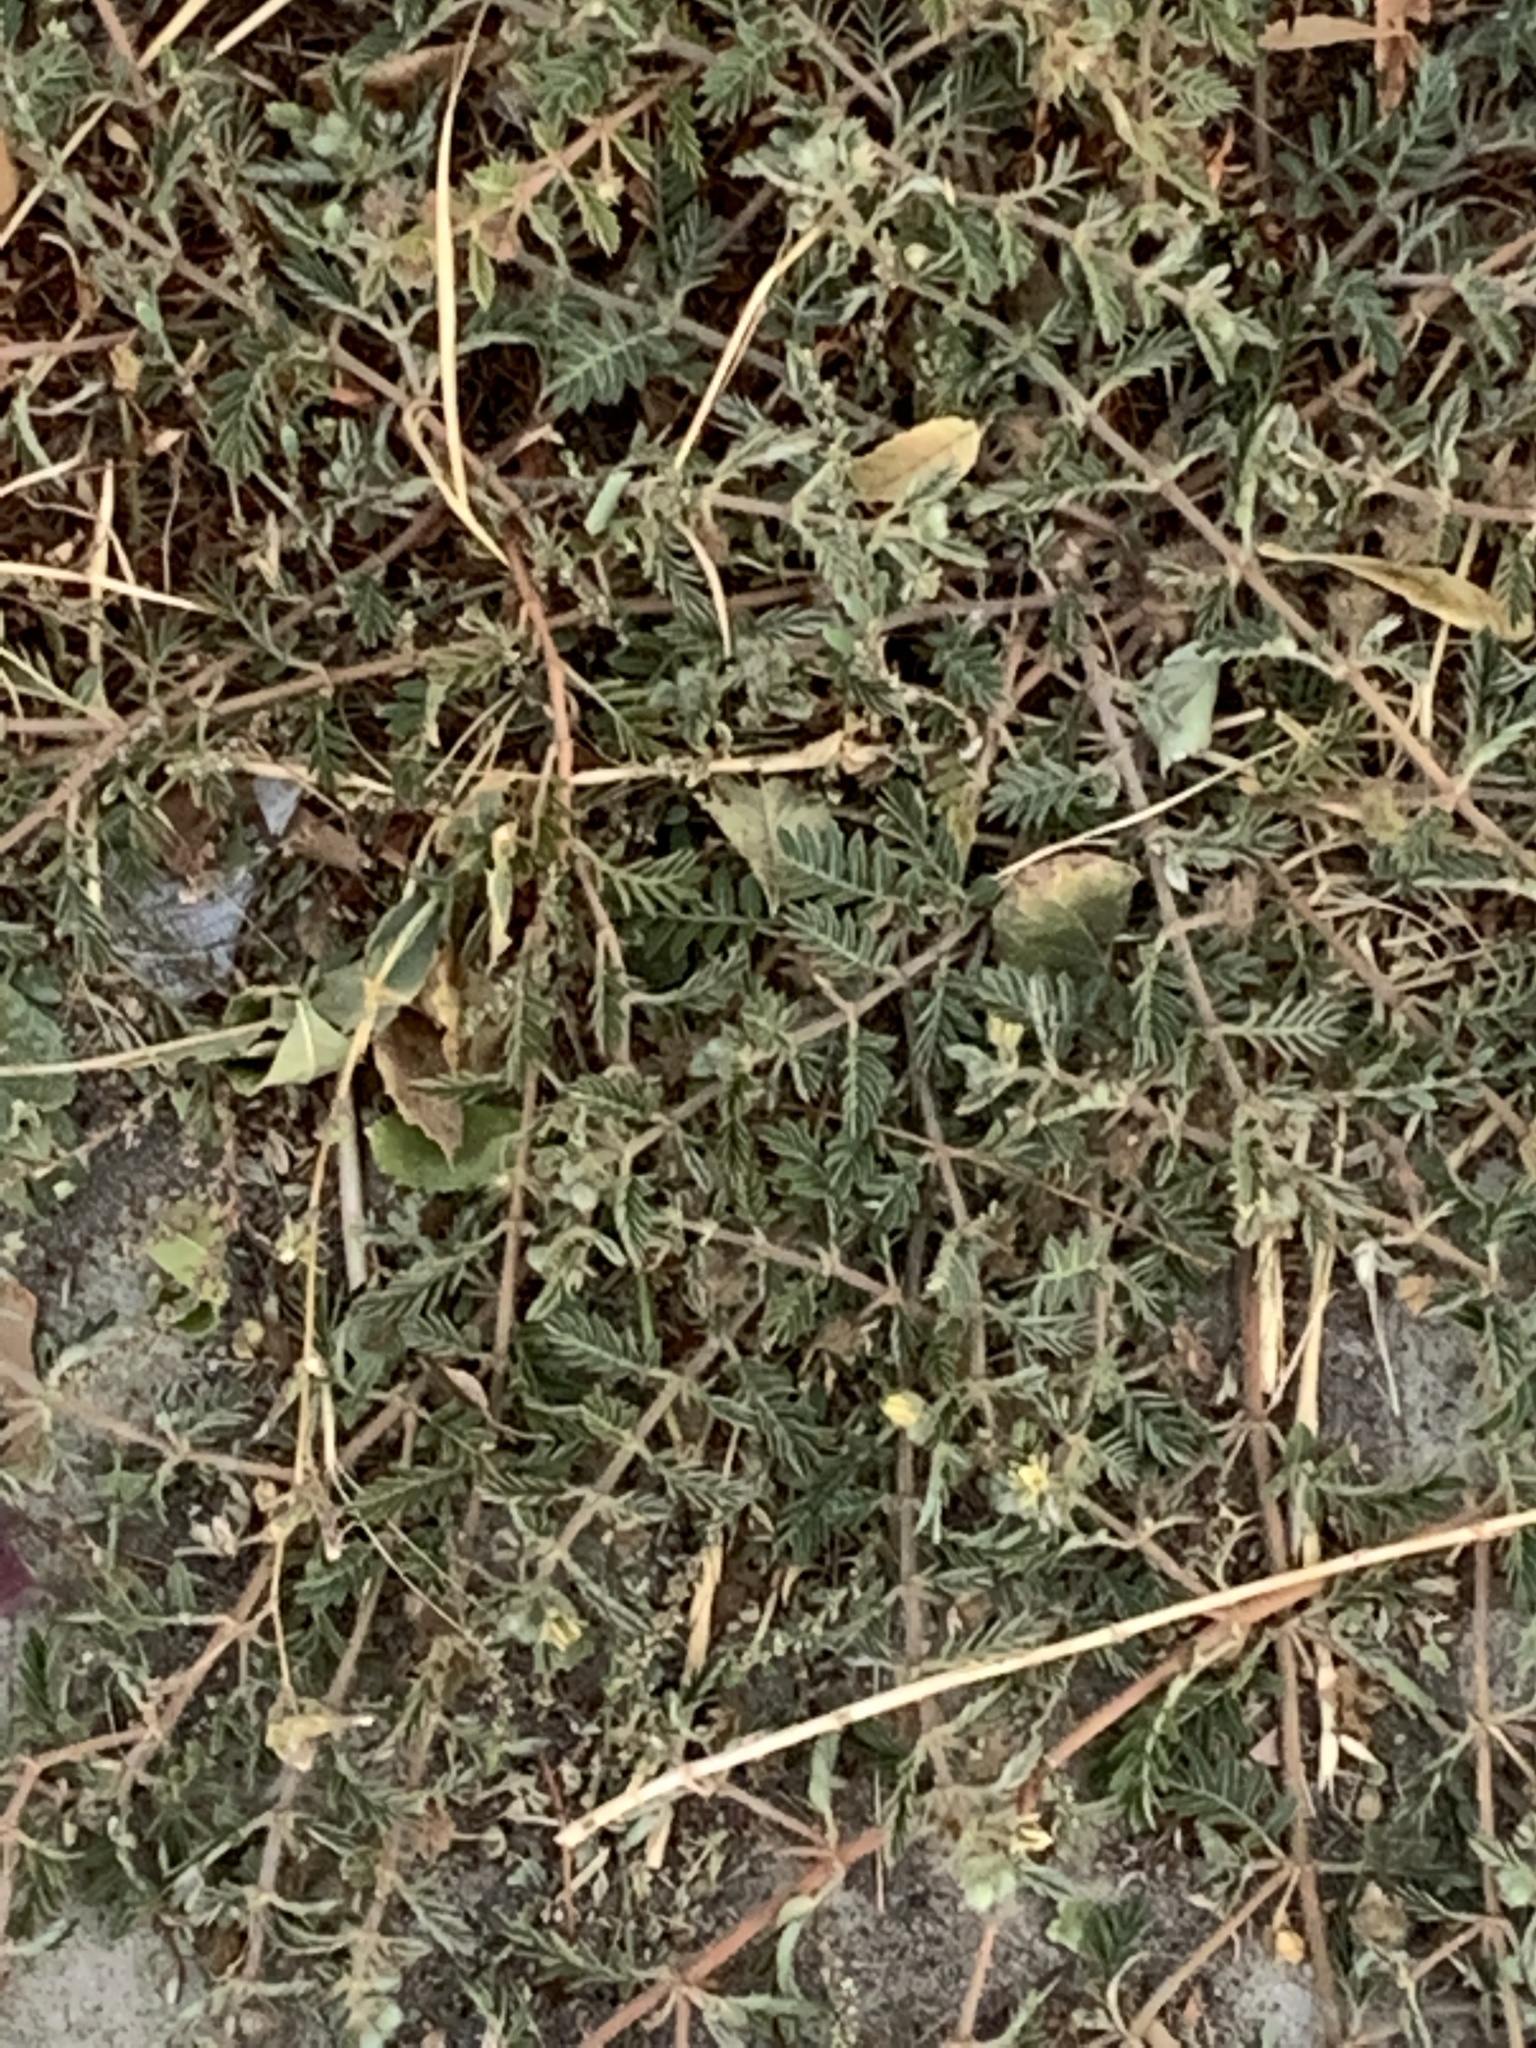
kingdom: Plantae
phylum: Tracheophyta
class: Magnoliopsida
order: Zygophyllales
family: Zygophyllaceae
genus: Tribulus
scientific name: Tribulus terrestris
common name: Puncturevine
